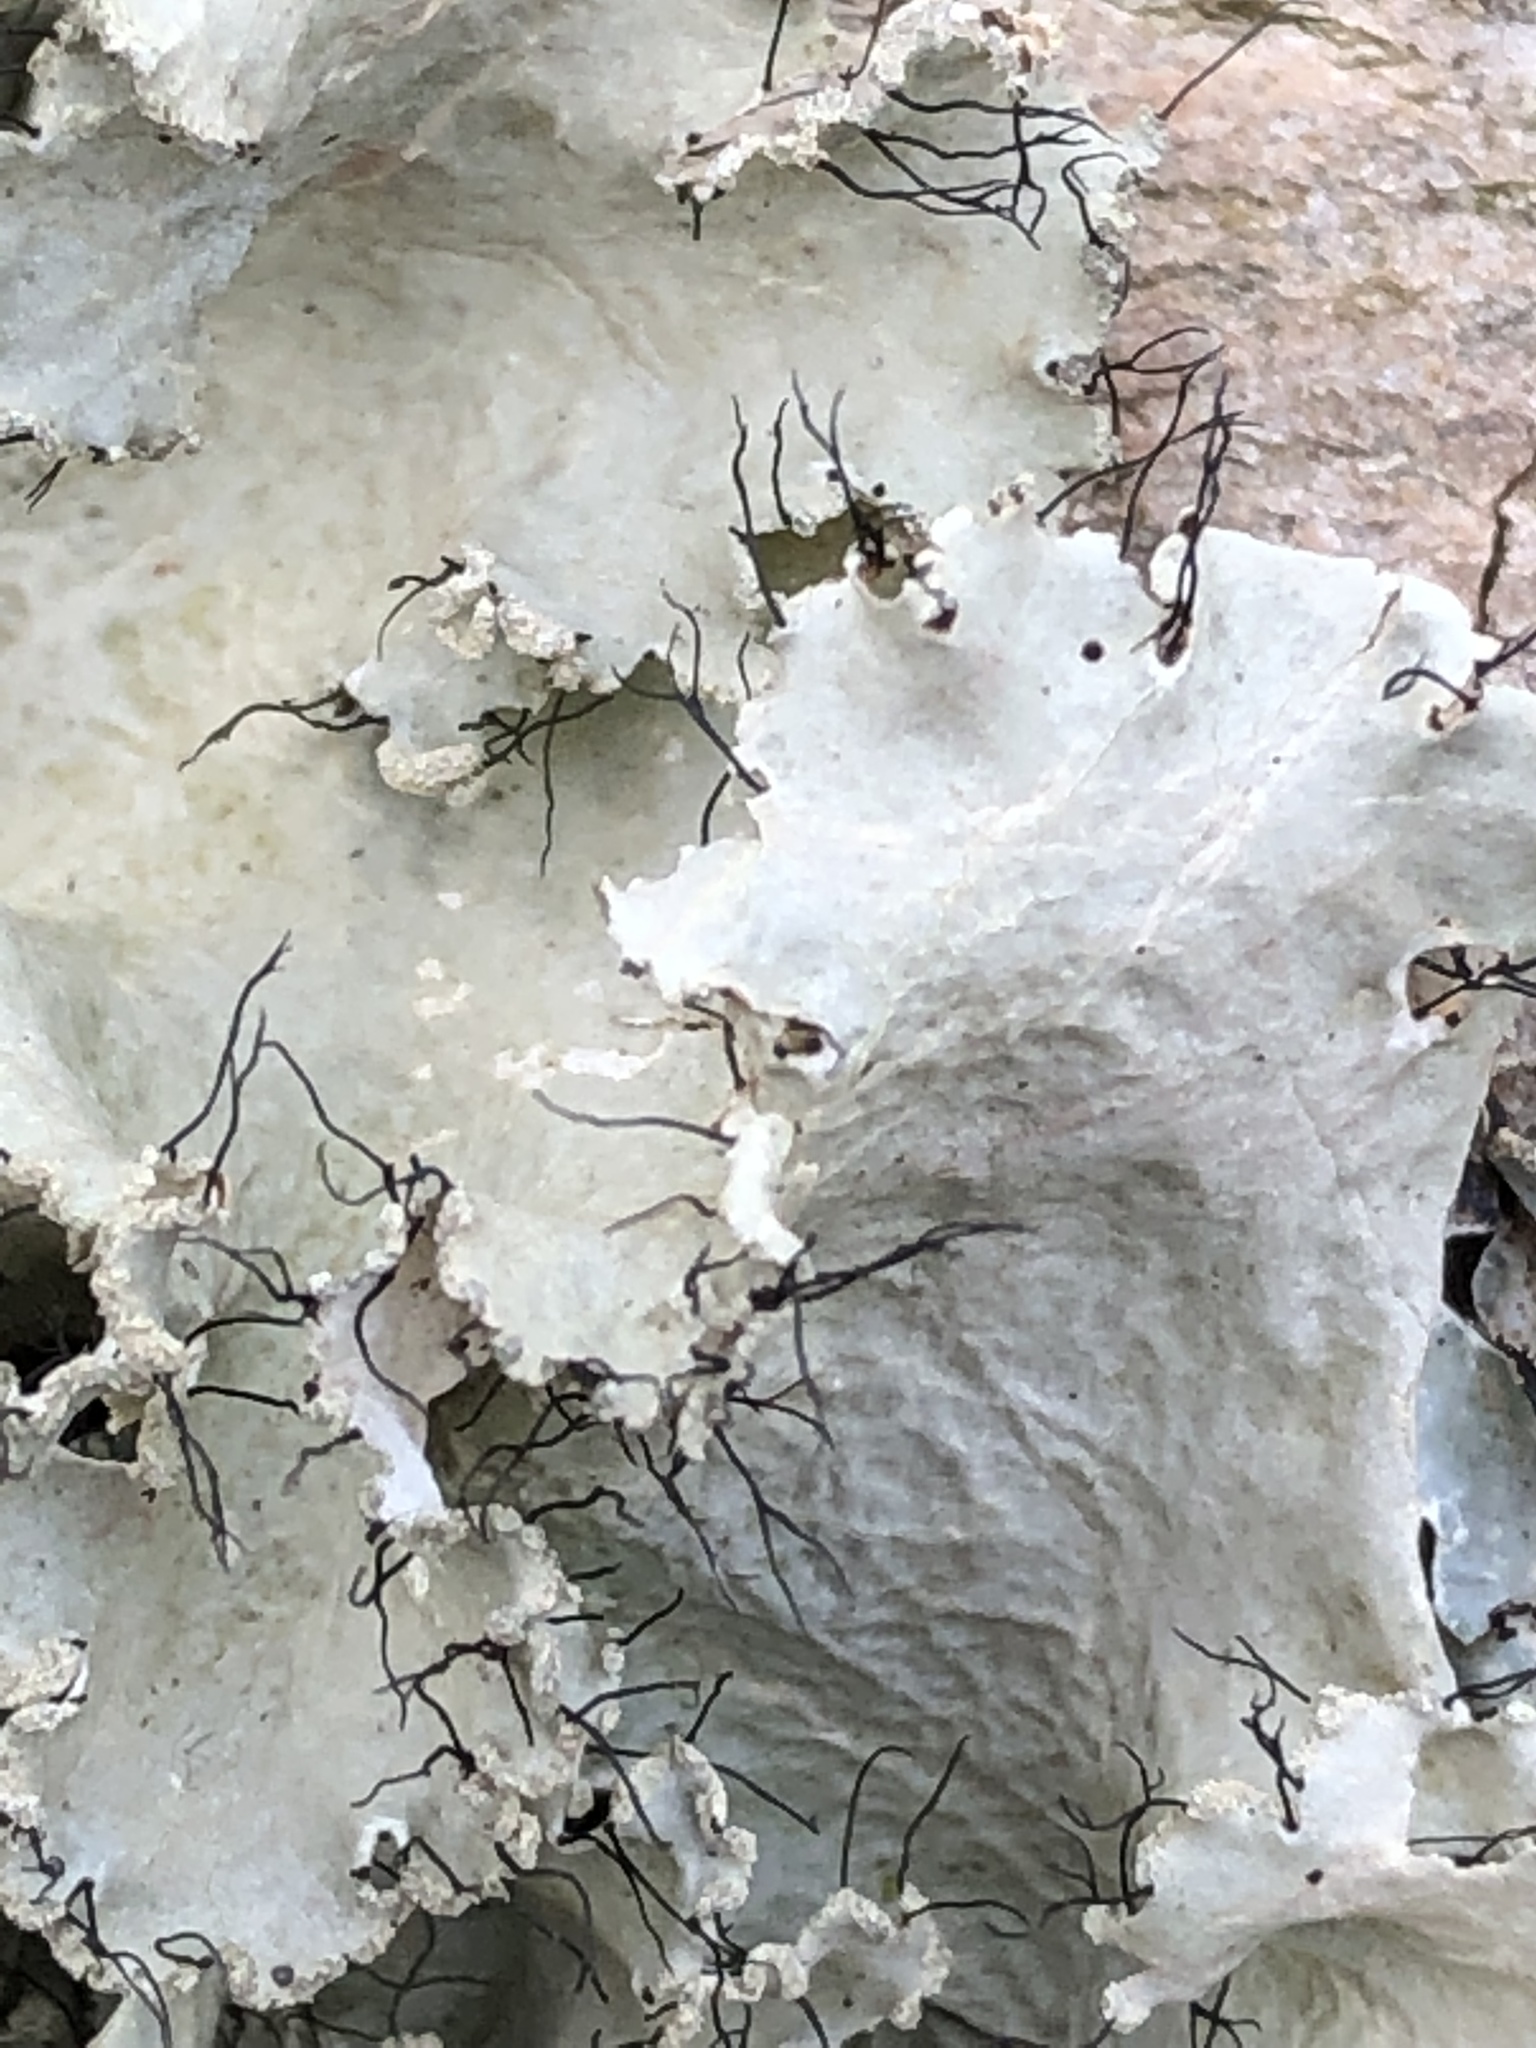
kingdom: Fungi
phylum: Ascomycota
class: Lecanoromycetes
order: Lecanorales
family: Parmeliaceae
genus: Parmotrema
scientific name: Parmotrema hypotropum
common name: Powdered ruffle lichen
